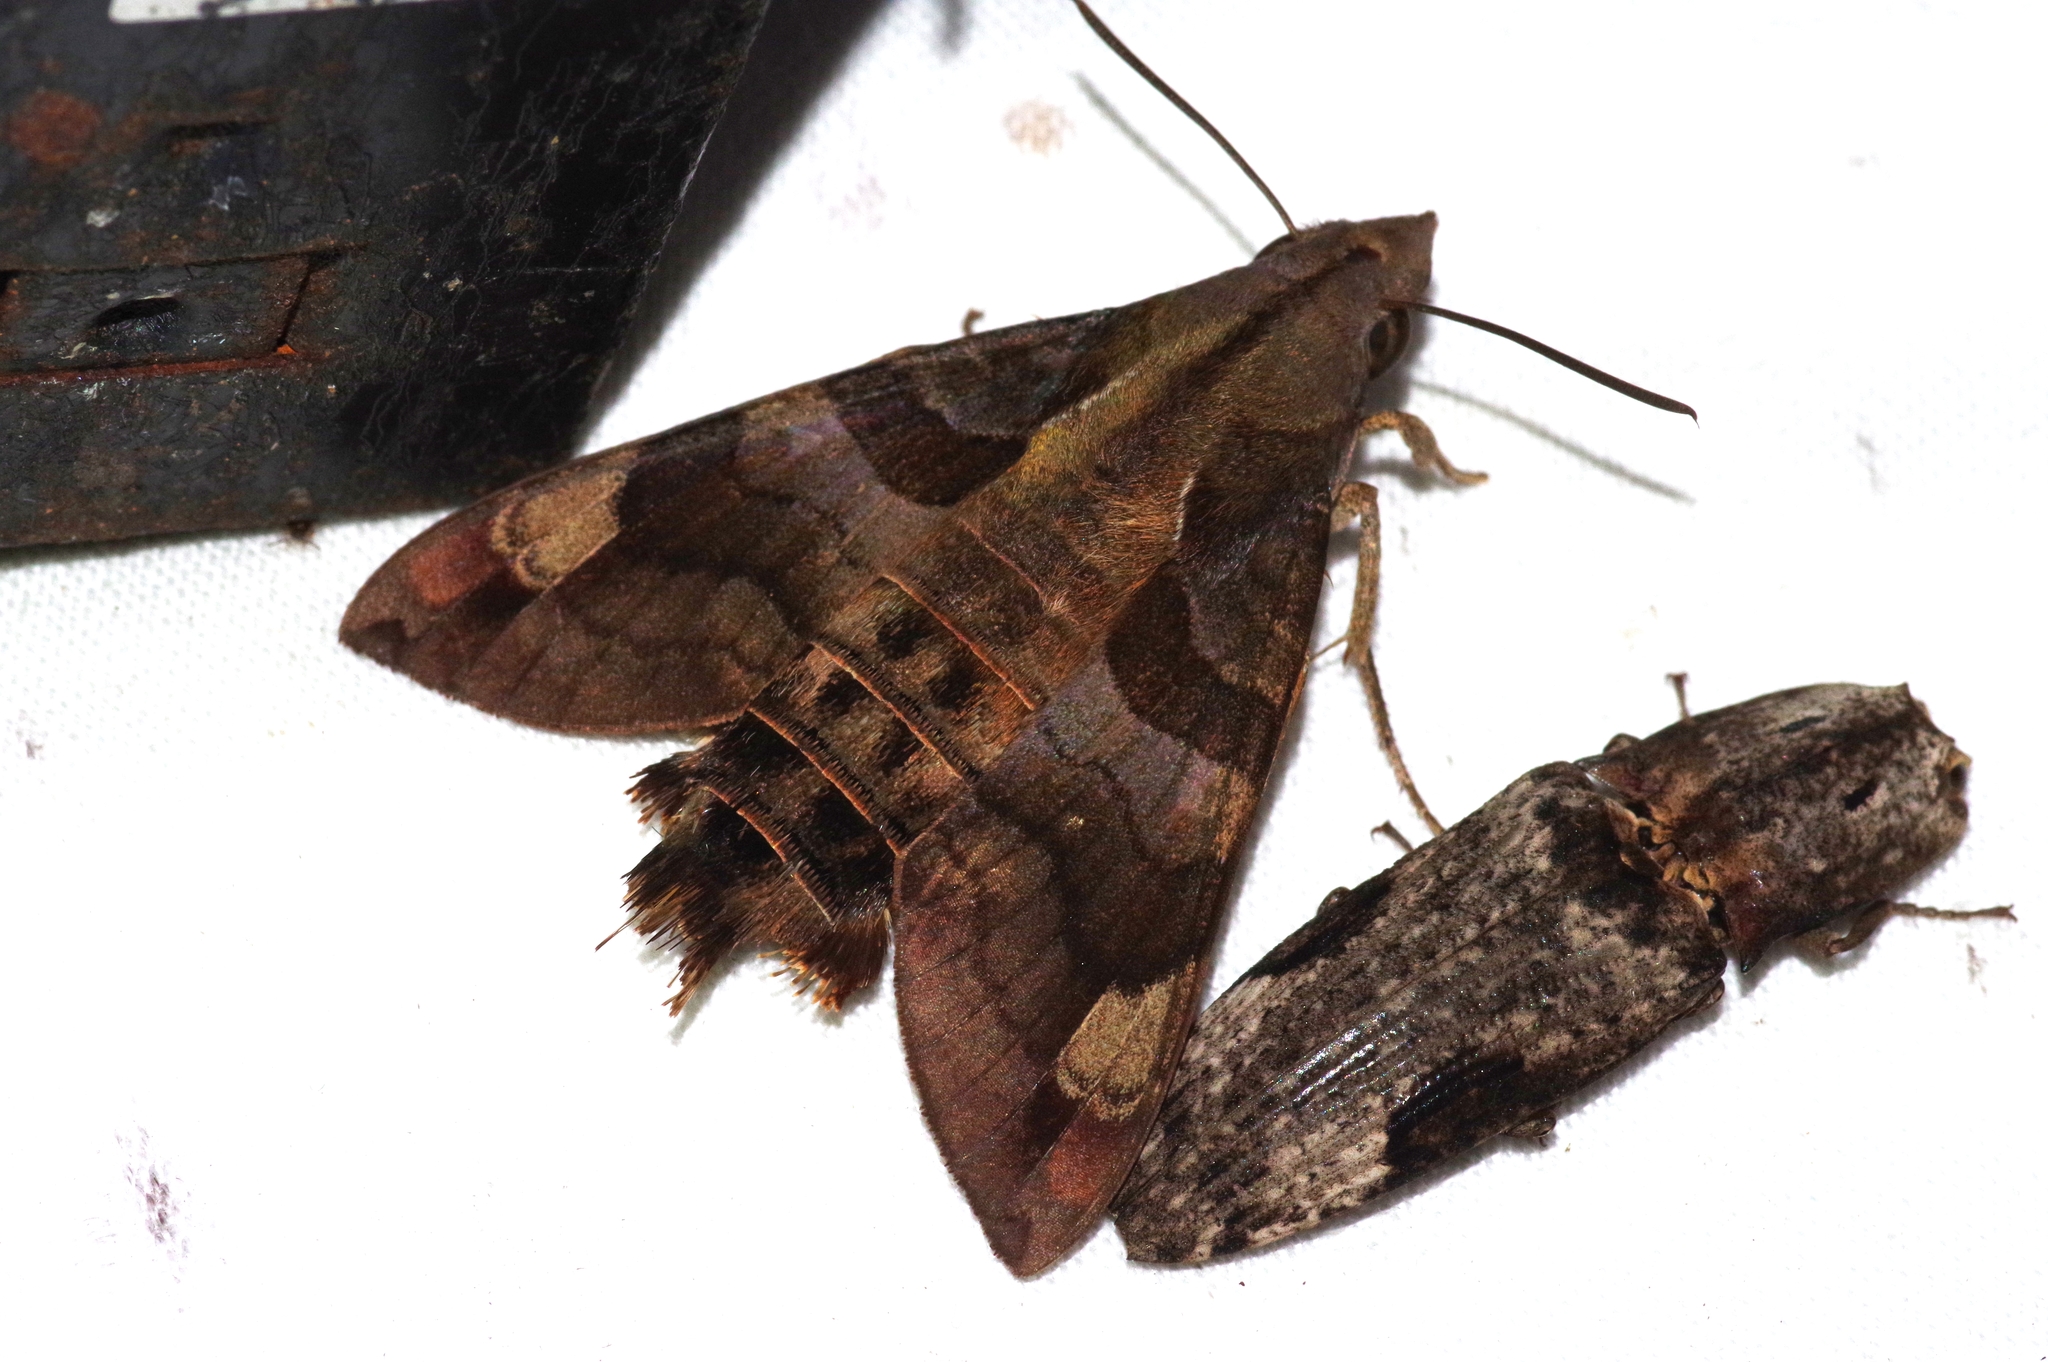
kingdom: Animalia
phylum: Arthropoda
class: Insecta
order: Lepidoptera
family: Sphingidae
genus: Macroglossum
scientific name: Macroglossum saga
